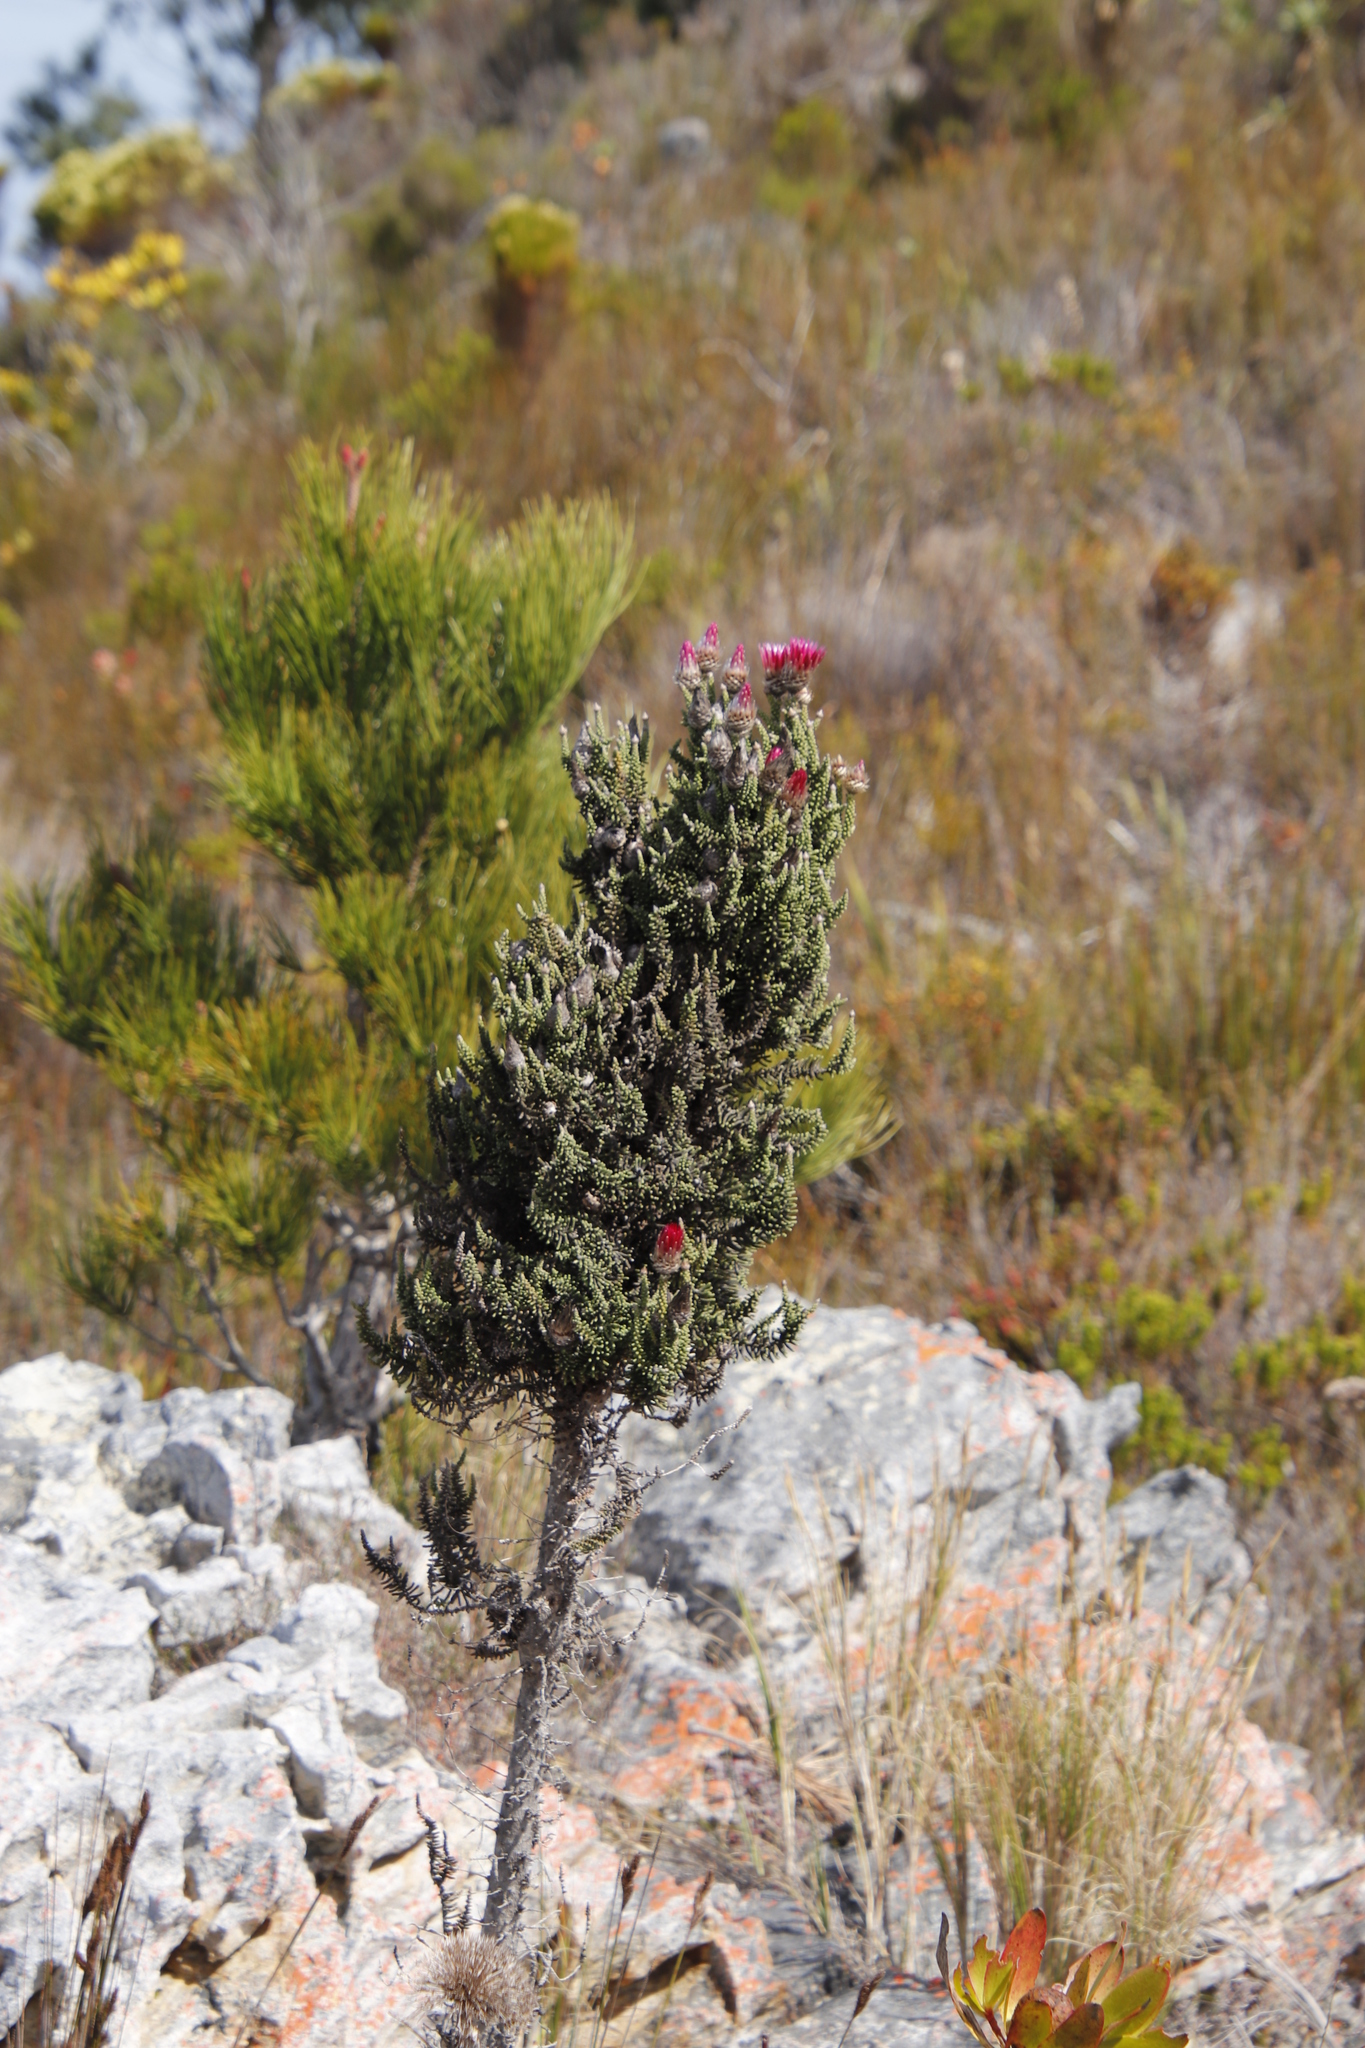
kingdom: Plantae
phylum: Tracheophyta
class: Magnoliopsida
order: Asterales
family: Asteraceae
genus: Phaenocoma
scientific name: Phaenocoma prolifera
